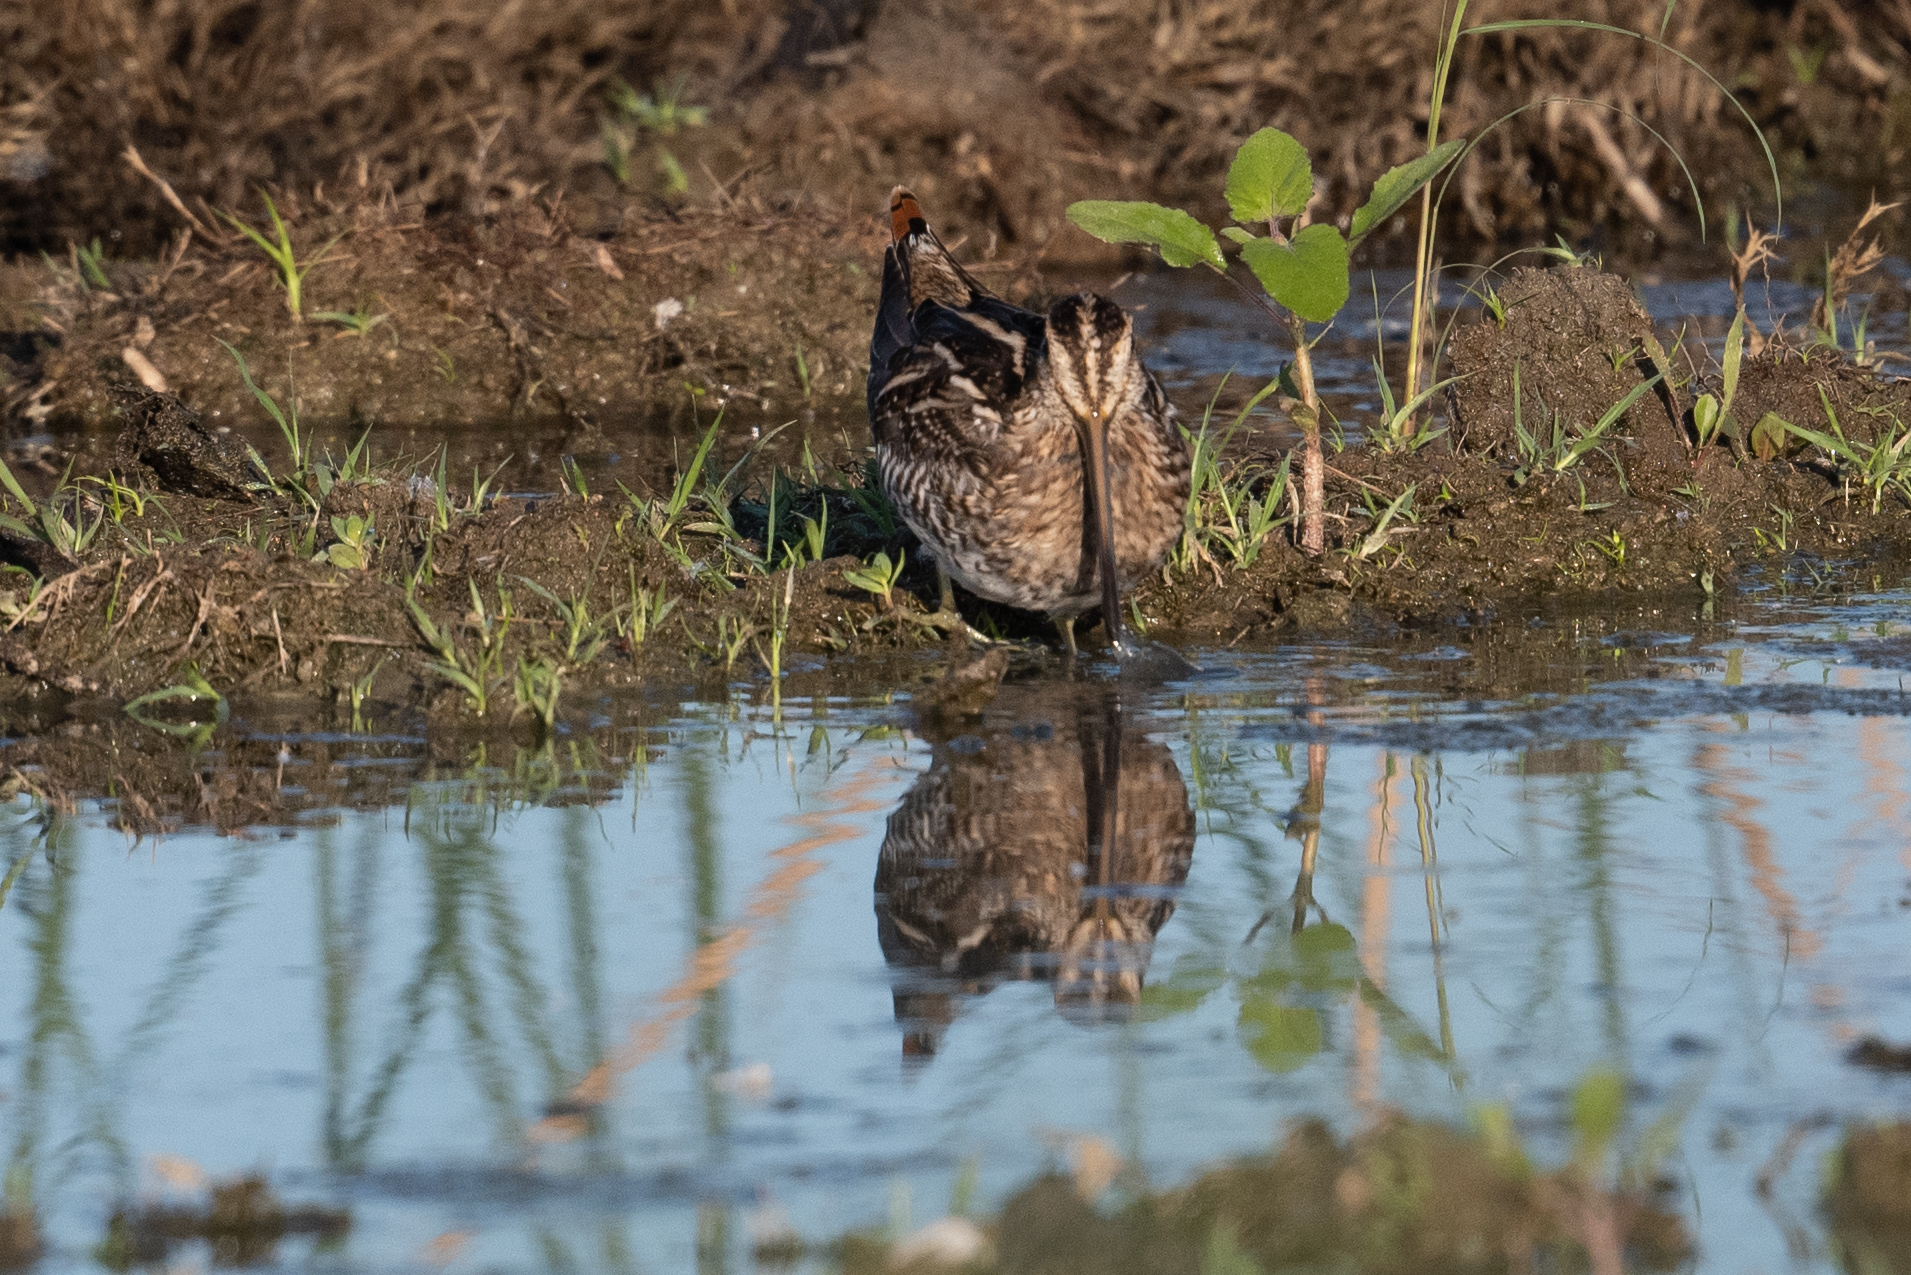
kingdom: Animalia
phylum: Chordata
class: Aves
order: Charadriiformes
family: Scolopacidae
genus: Gallinago
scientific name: Gallinago delicata
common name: Wilson's snipe
